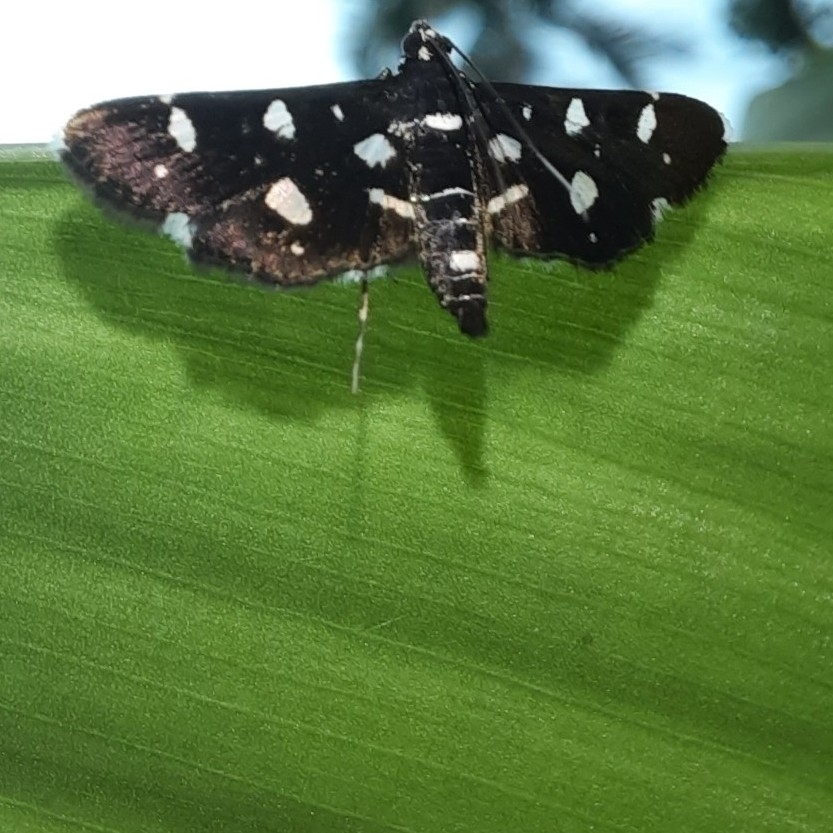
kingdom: Animalia
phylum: Arthropoda
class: Insecta
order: Lepidoptera
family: Crambidae
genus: Bocchoris
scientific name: Bocchoris inspersalis
